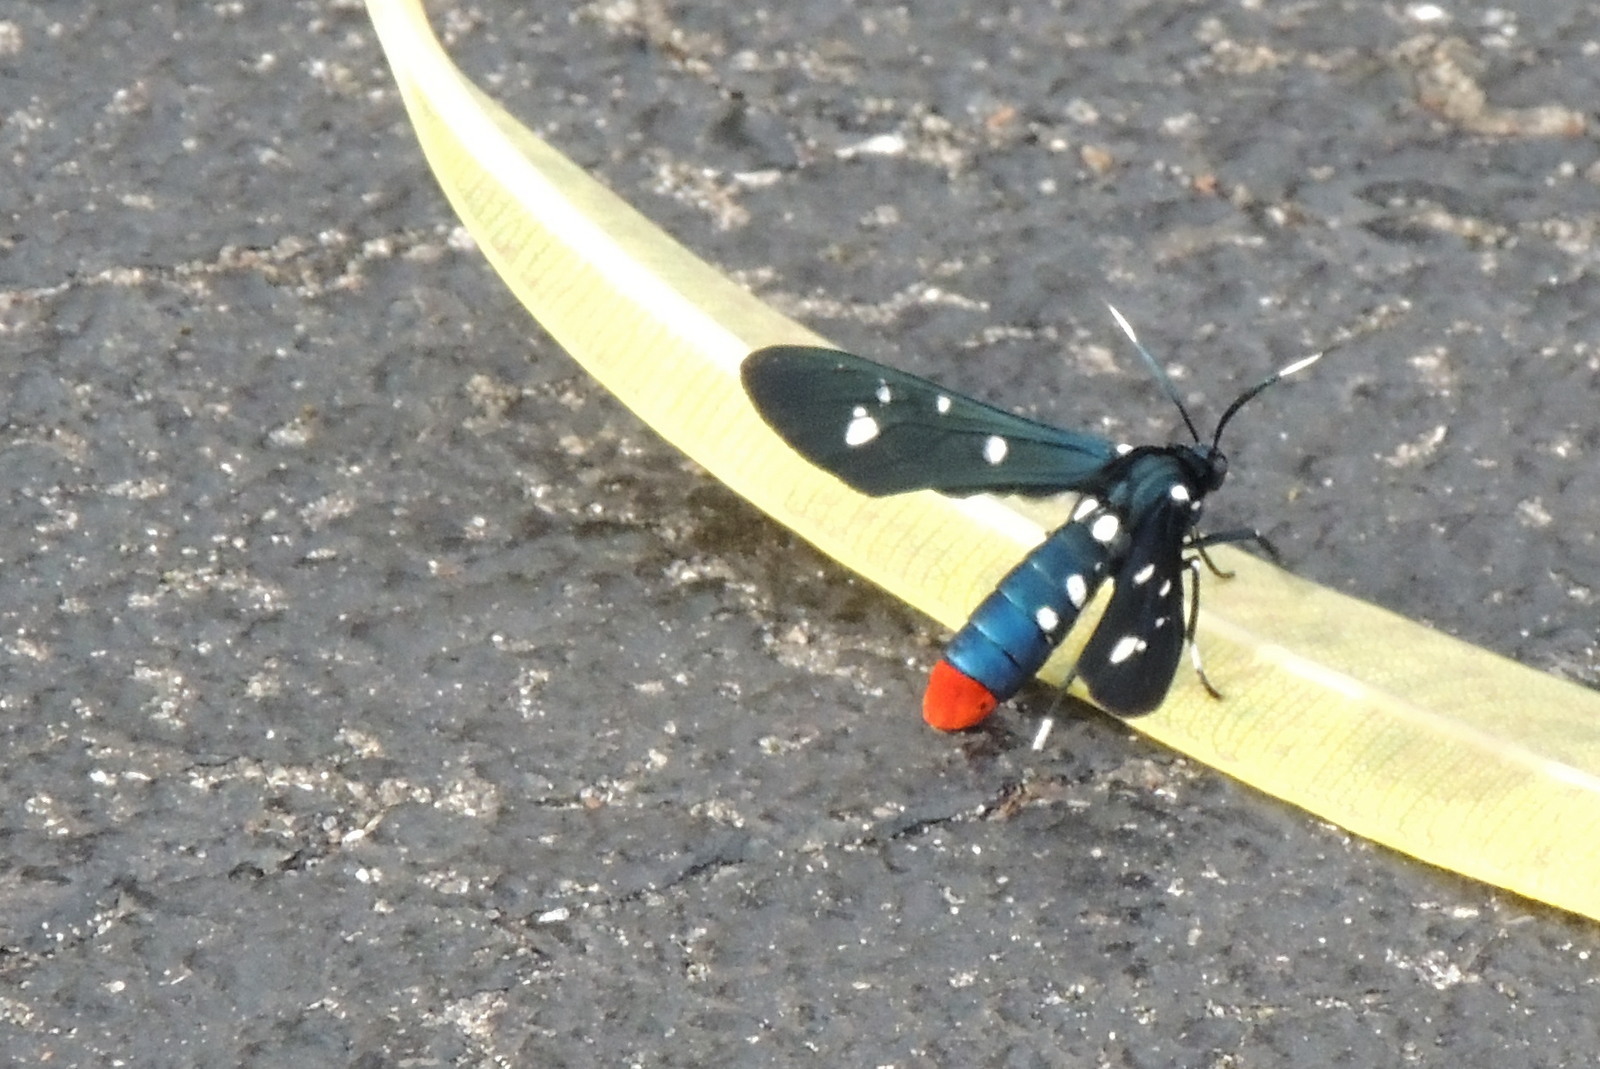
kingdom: Animalia
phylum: Arthropoda
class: Insecta
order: Lepidoptera
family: Erebidae
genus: Syntomeida
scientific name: Syntomeida epilais
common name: Polka-dot wasp moth
